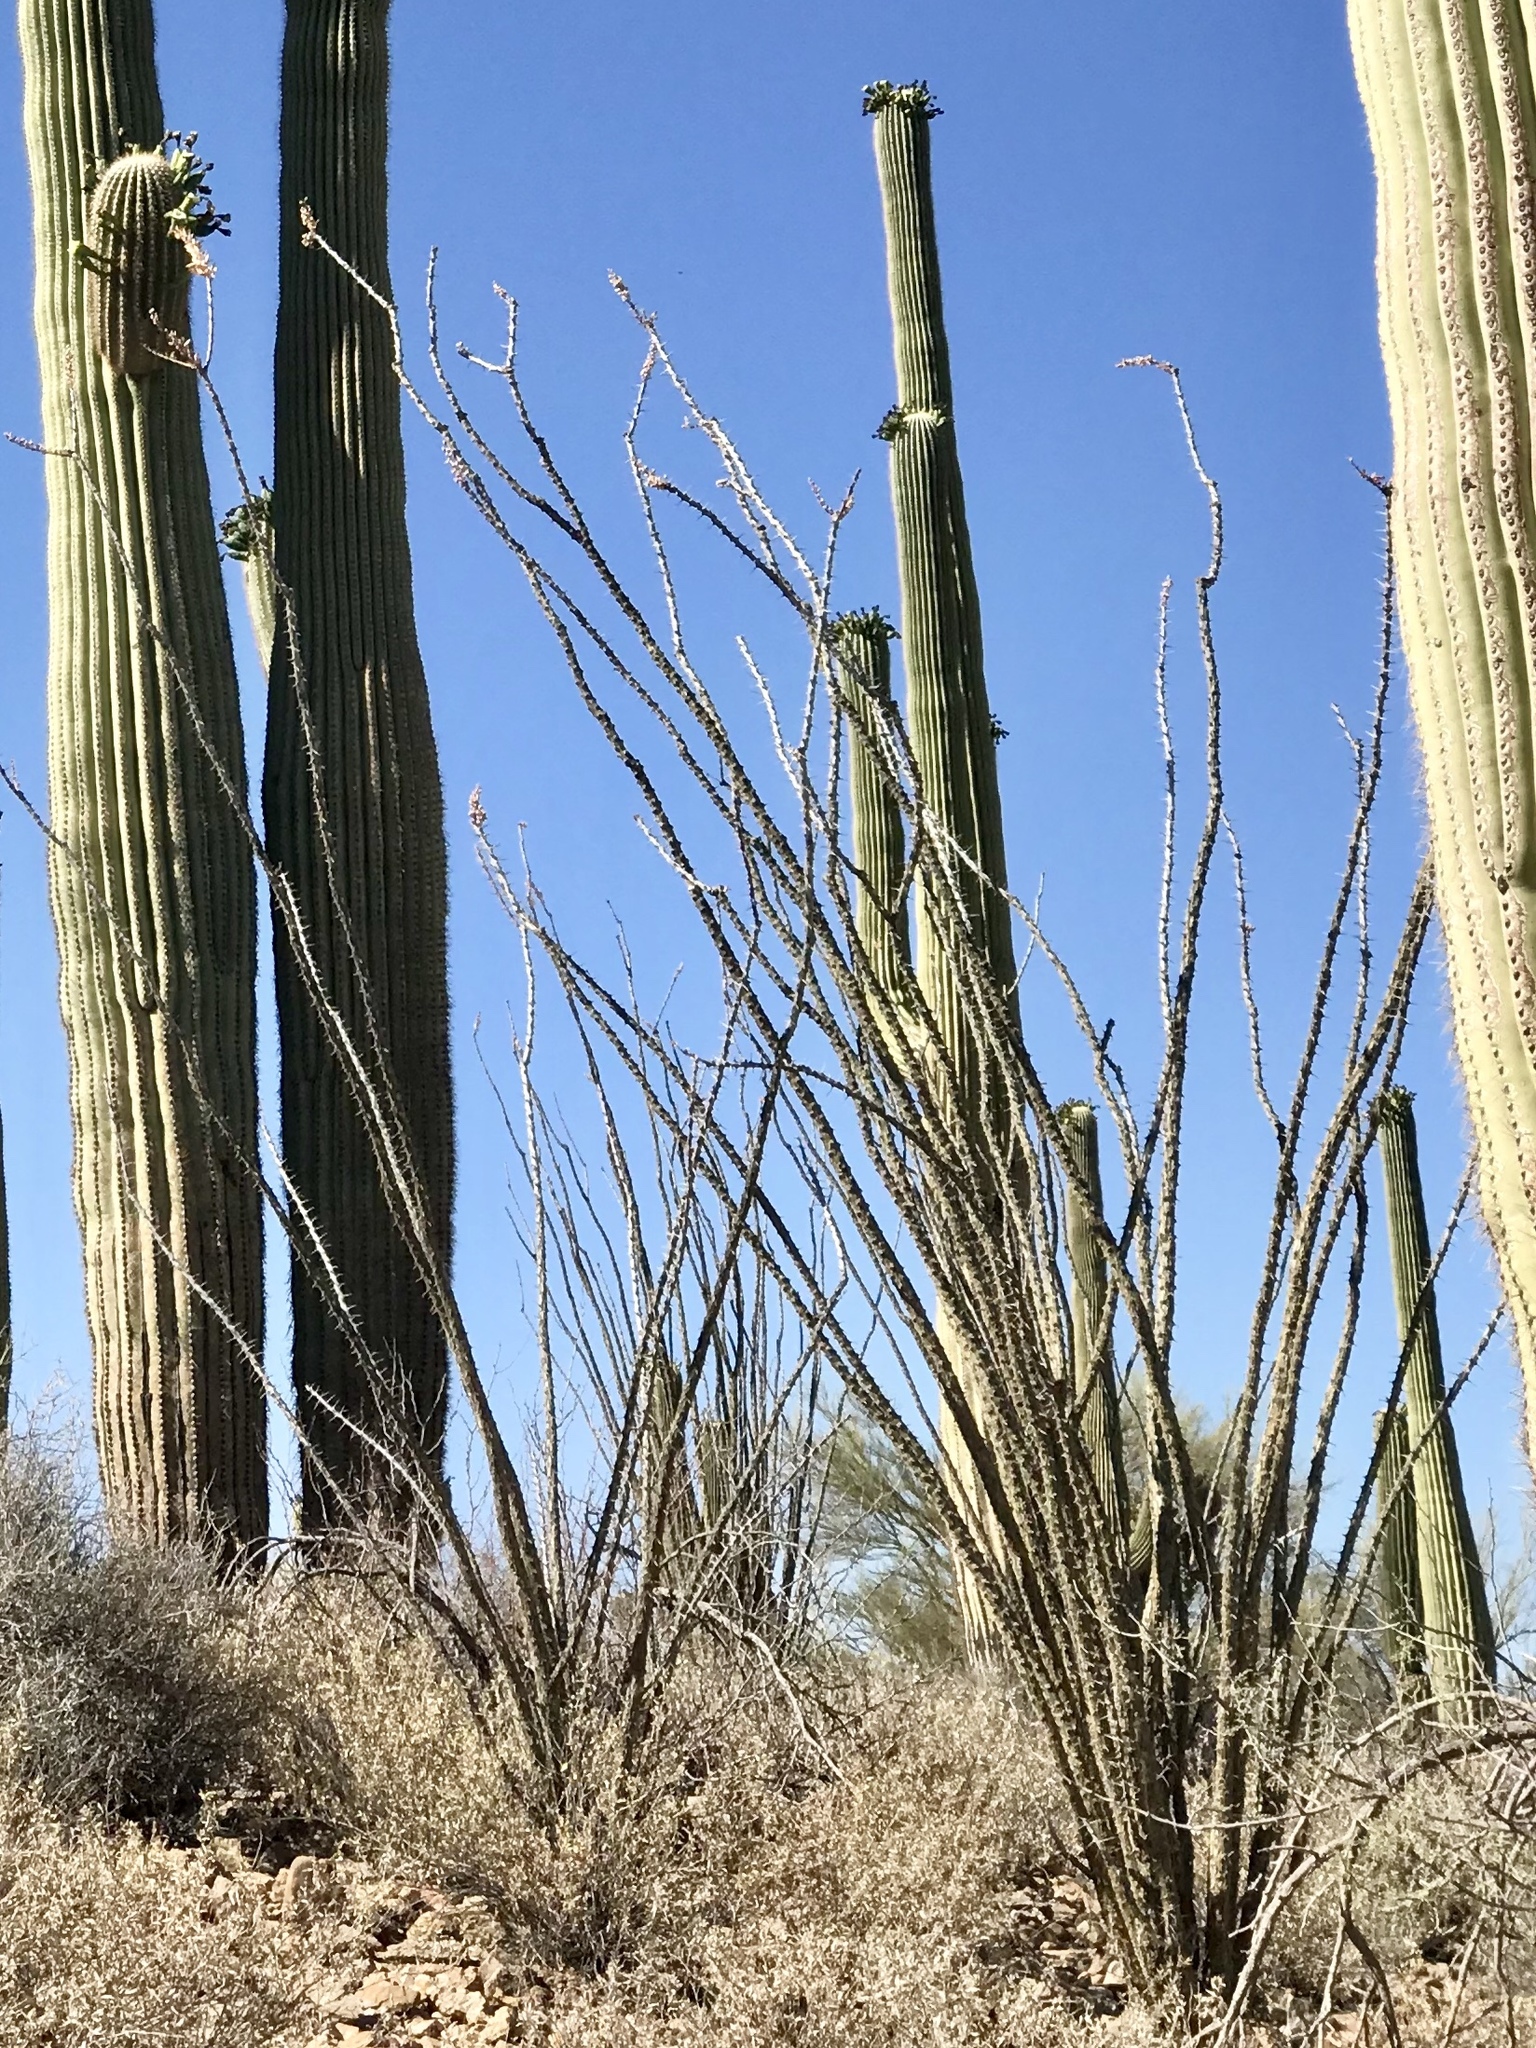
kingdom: Plantae
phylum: Tracheophyta
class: Magnoliopsida
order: Ericales
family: Fouquieriaceae
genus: Fouquieria
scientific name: Fouquieria splendens
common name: Vine-cactus
